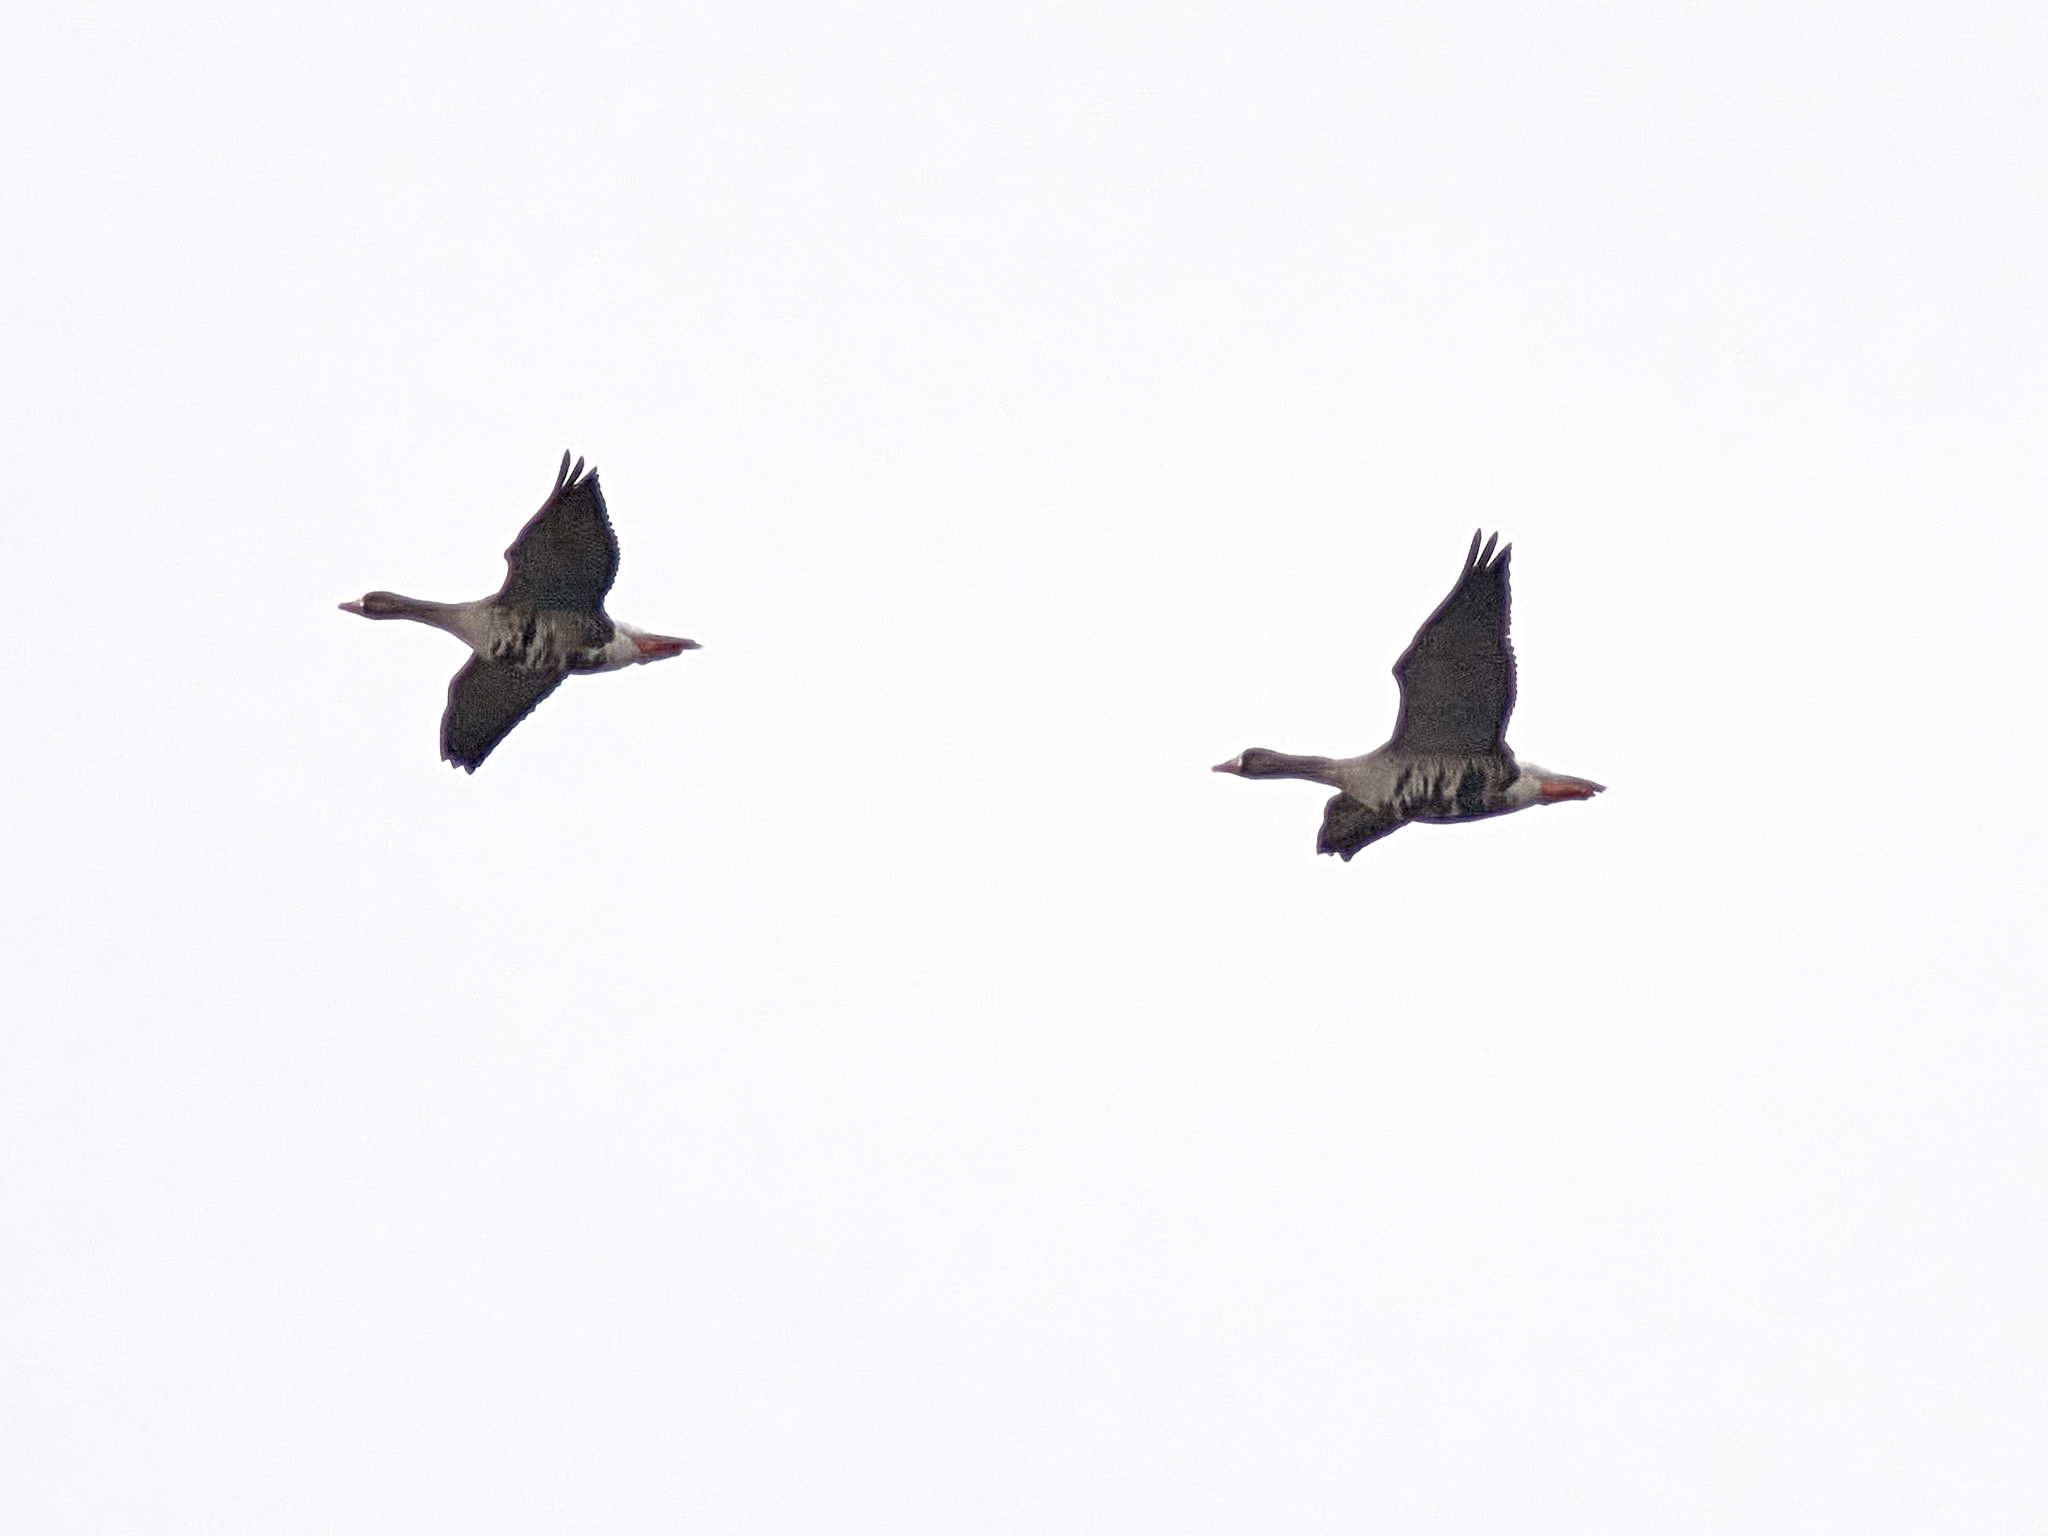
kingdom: Animalia
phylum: Chordata
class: Aves
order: Anseriformes
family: Anatidae
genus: Anser
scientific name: Anser albifrons
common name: Greater white-fronted goose
